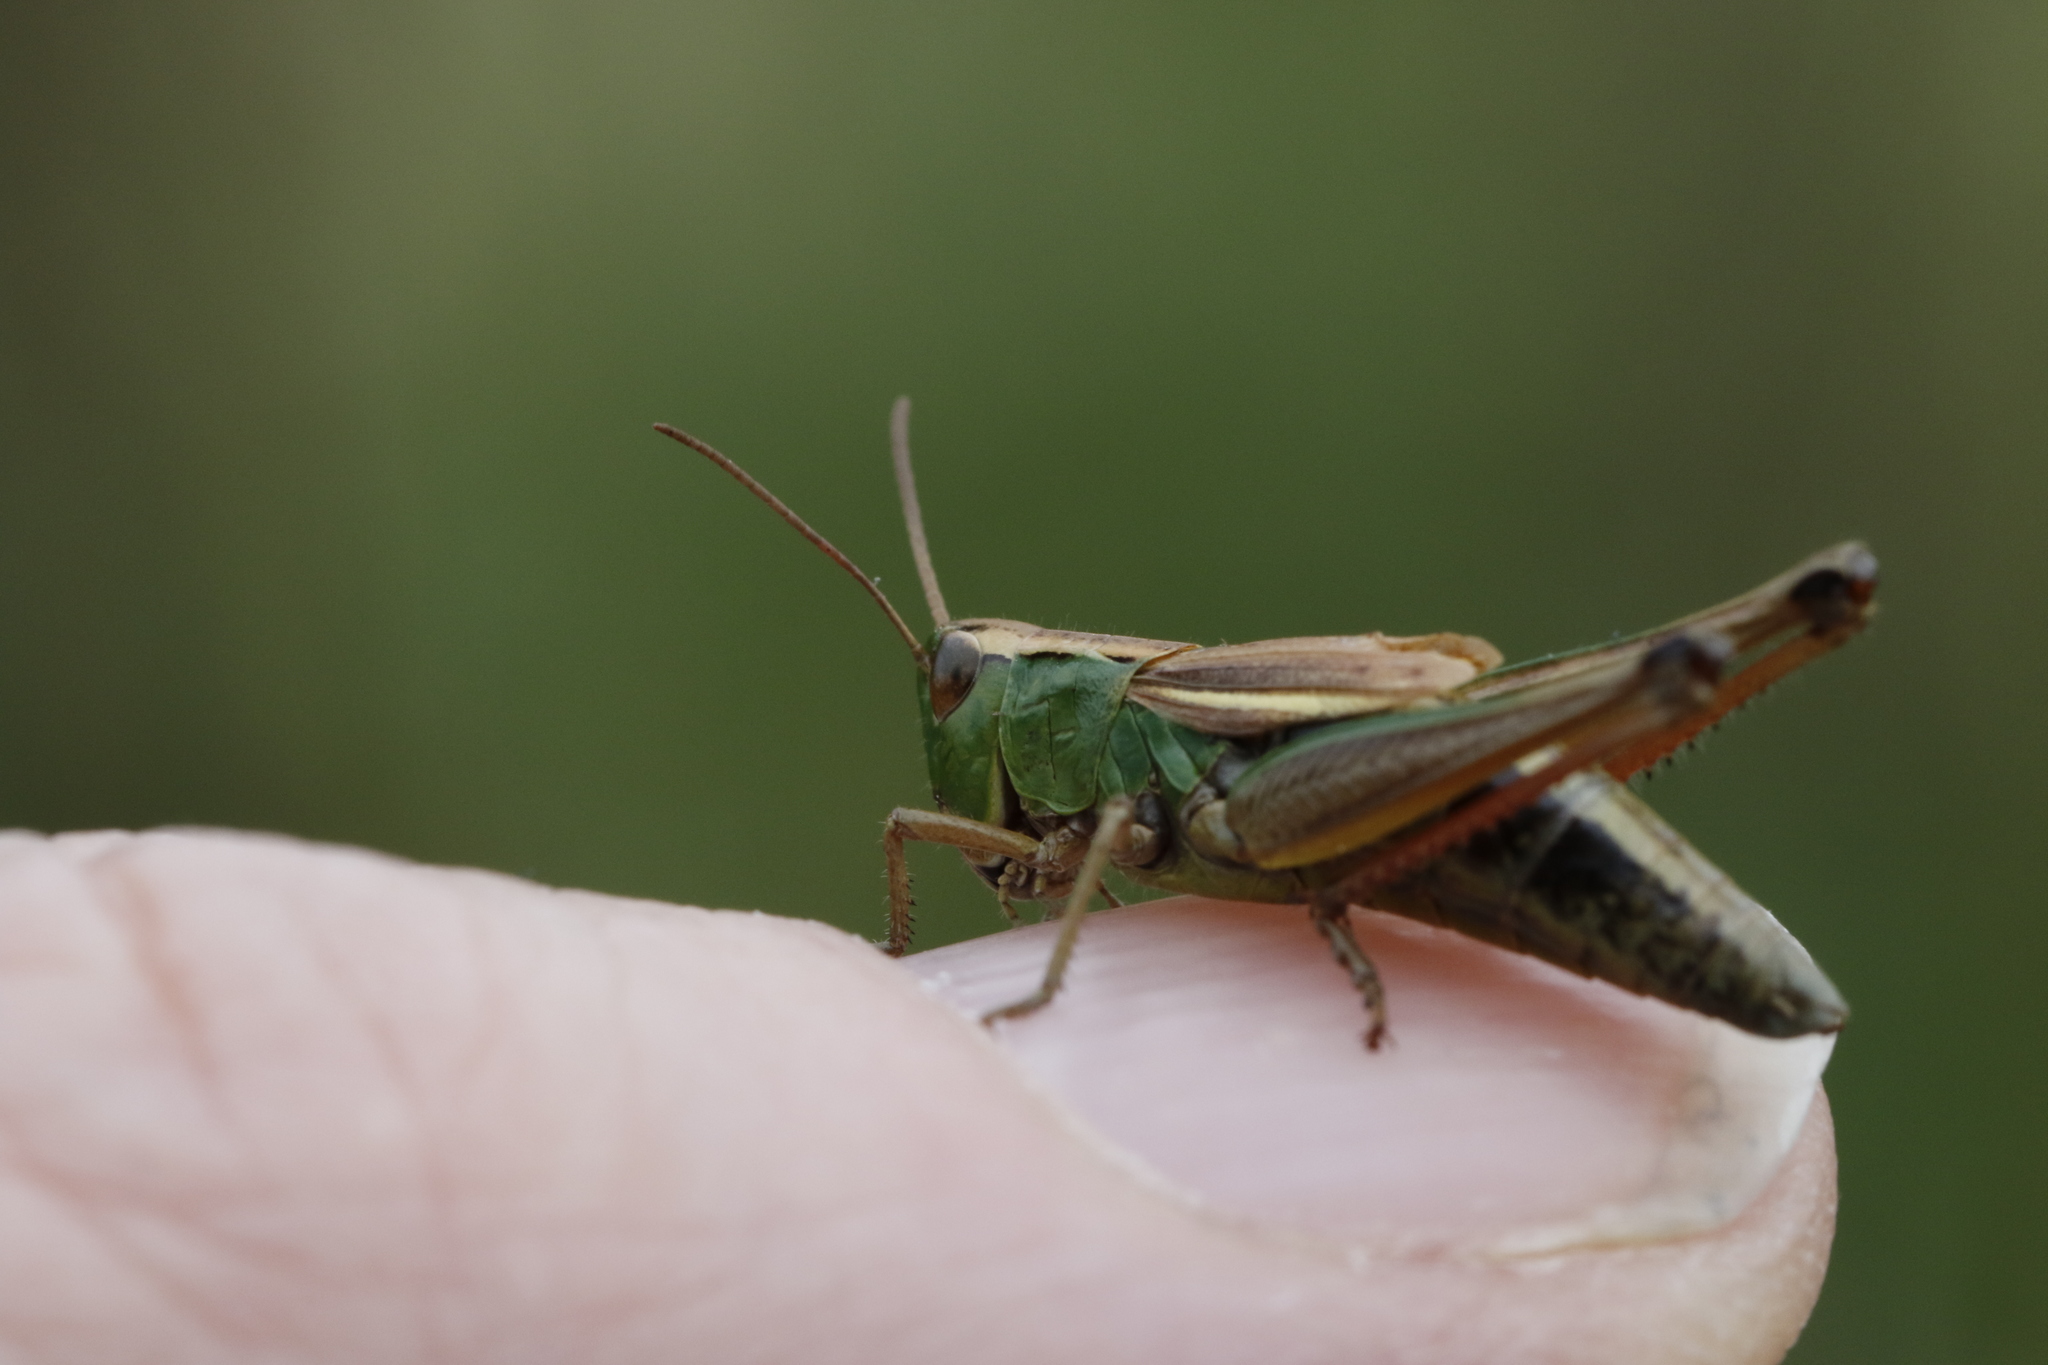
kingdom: Animalia
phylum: Arthropoda
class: Insecta
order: Orthoptera
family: Acrididae
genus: Pseudochorthippus
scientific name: Pseudochorthippus parallelus
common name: Meadow grasshopper
